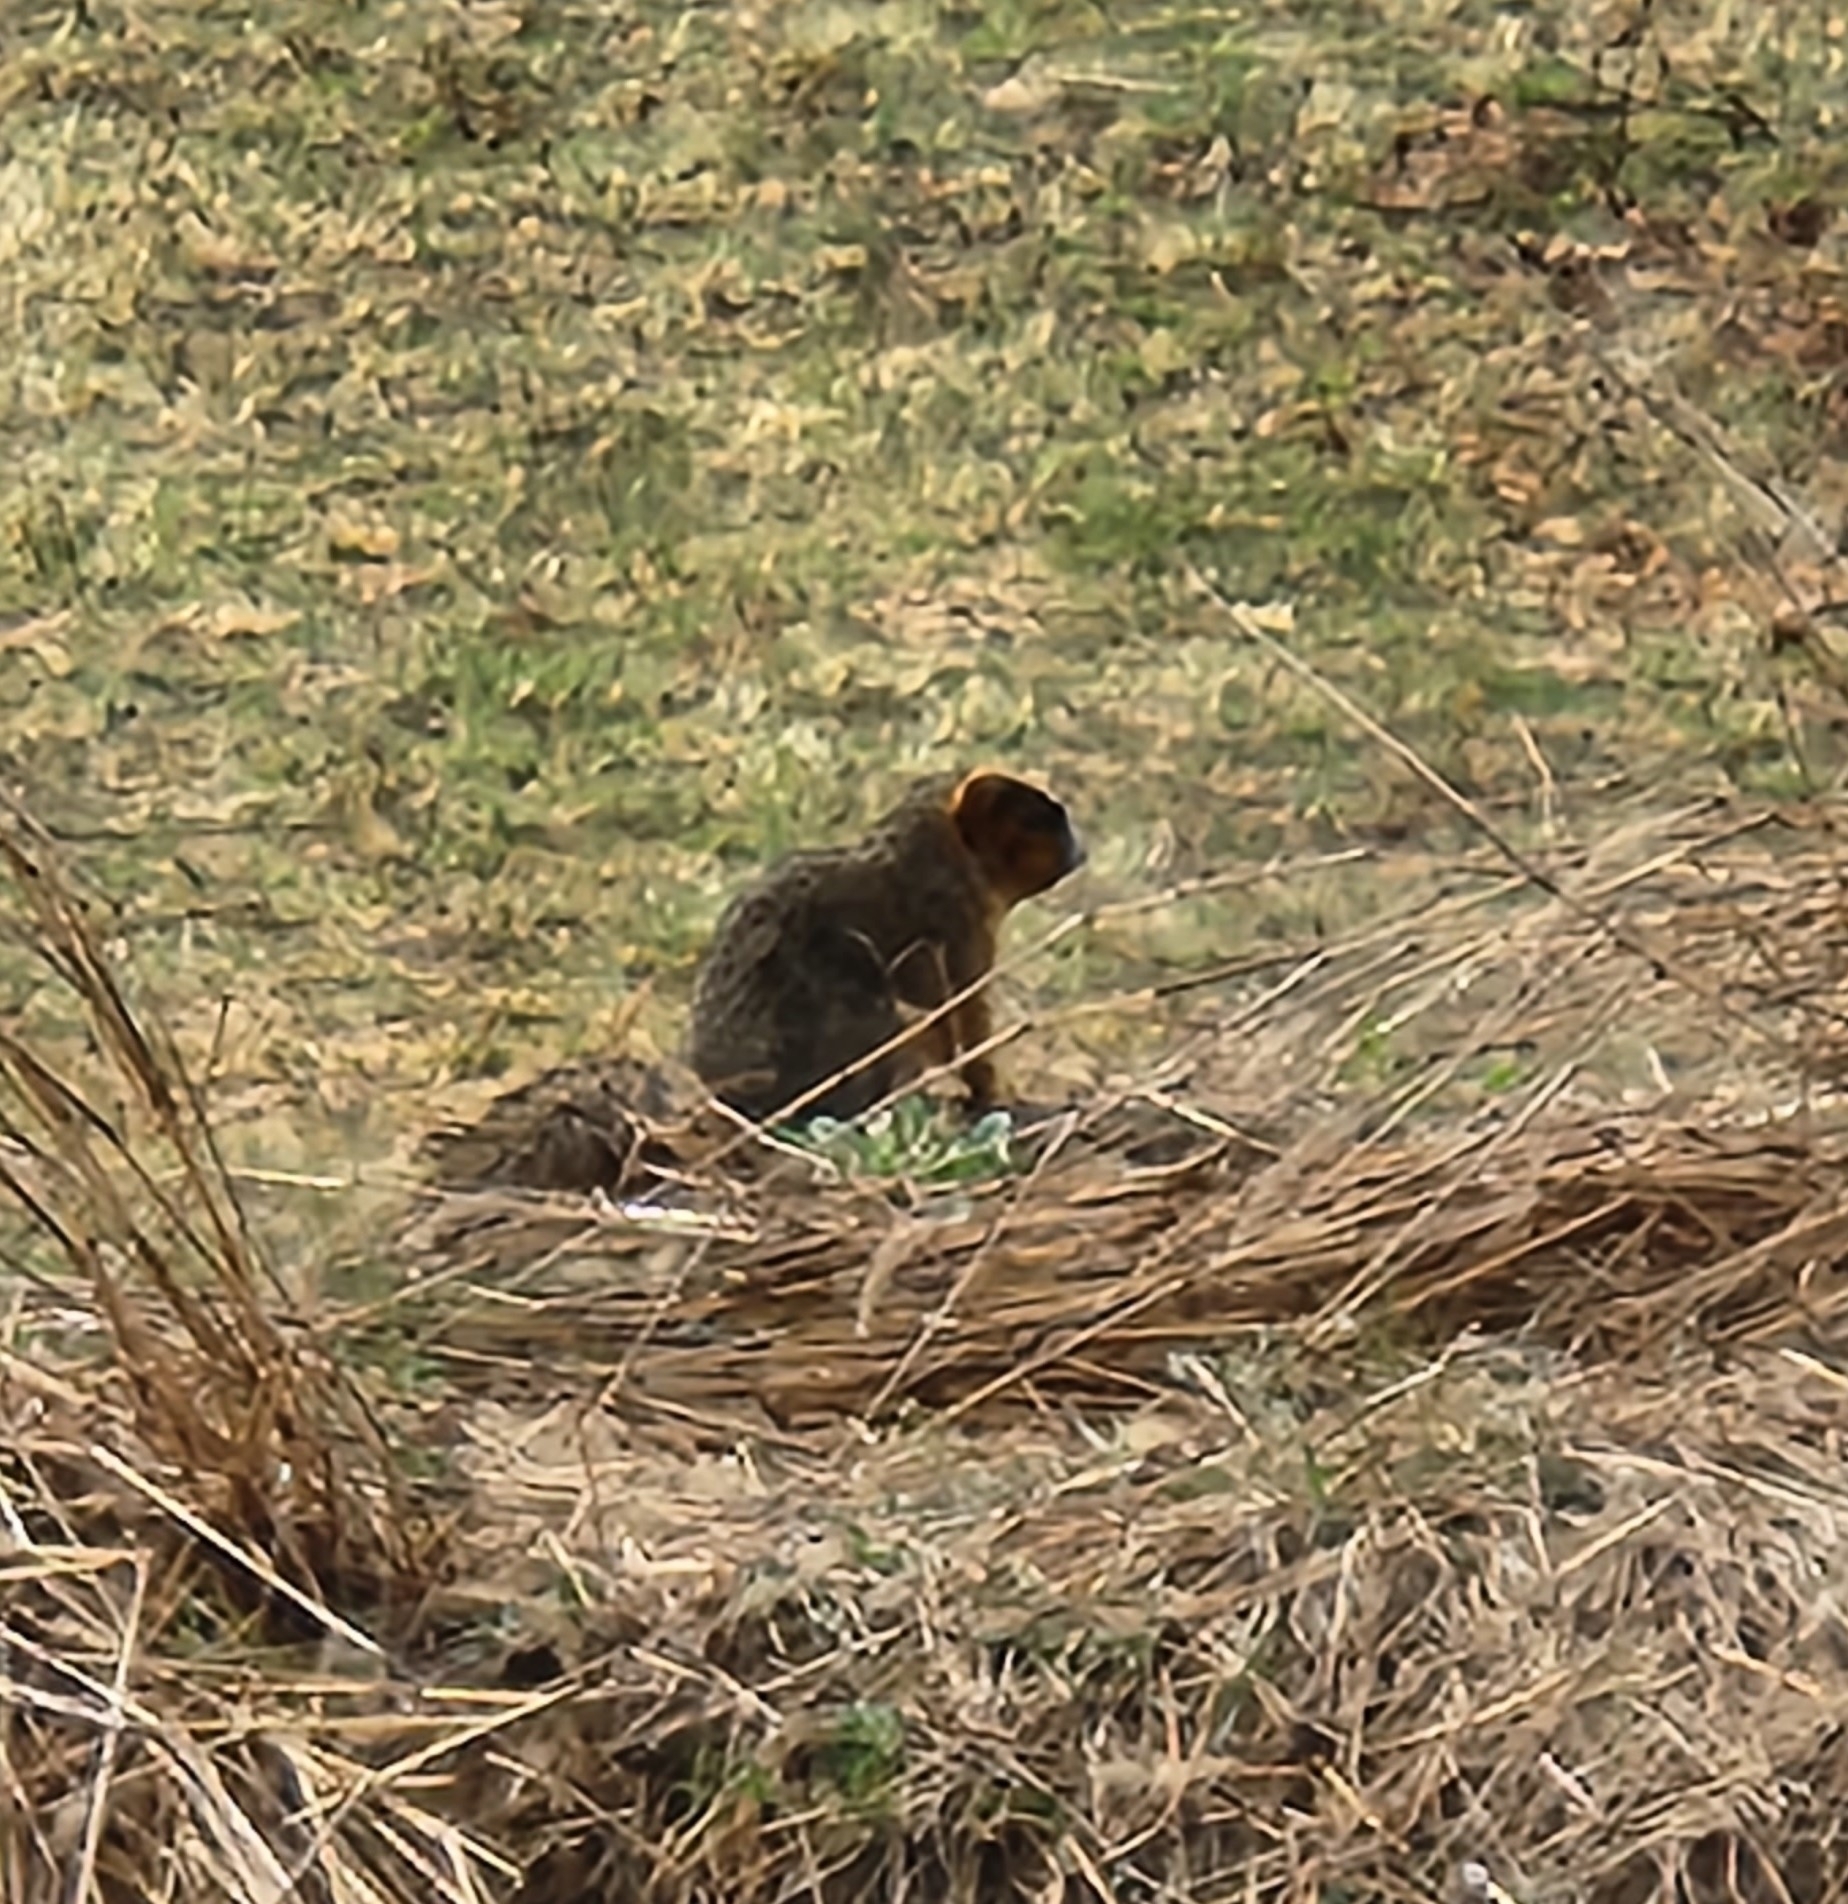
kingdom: Animalia
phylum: Chordata
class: Mammalia
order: Rodentia
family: Sciuridae
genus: Sciurus
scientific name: Sciurus niger
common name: Fox squirrel
